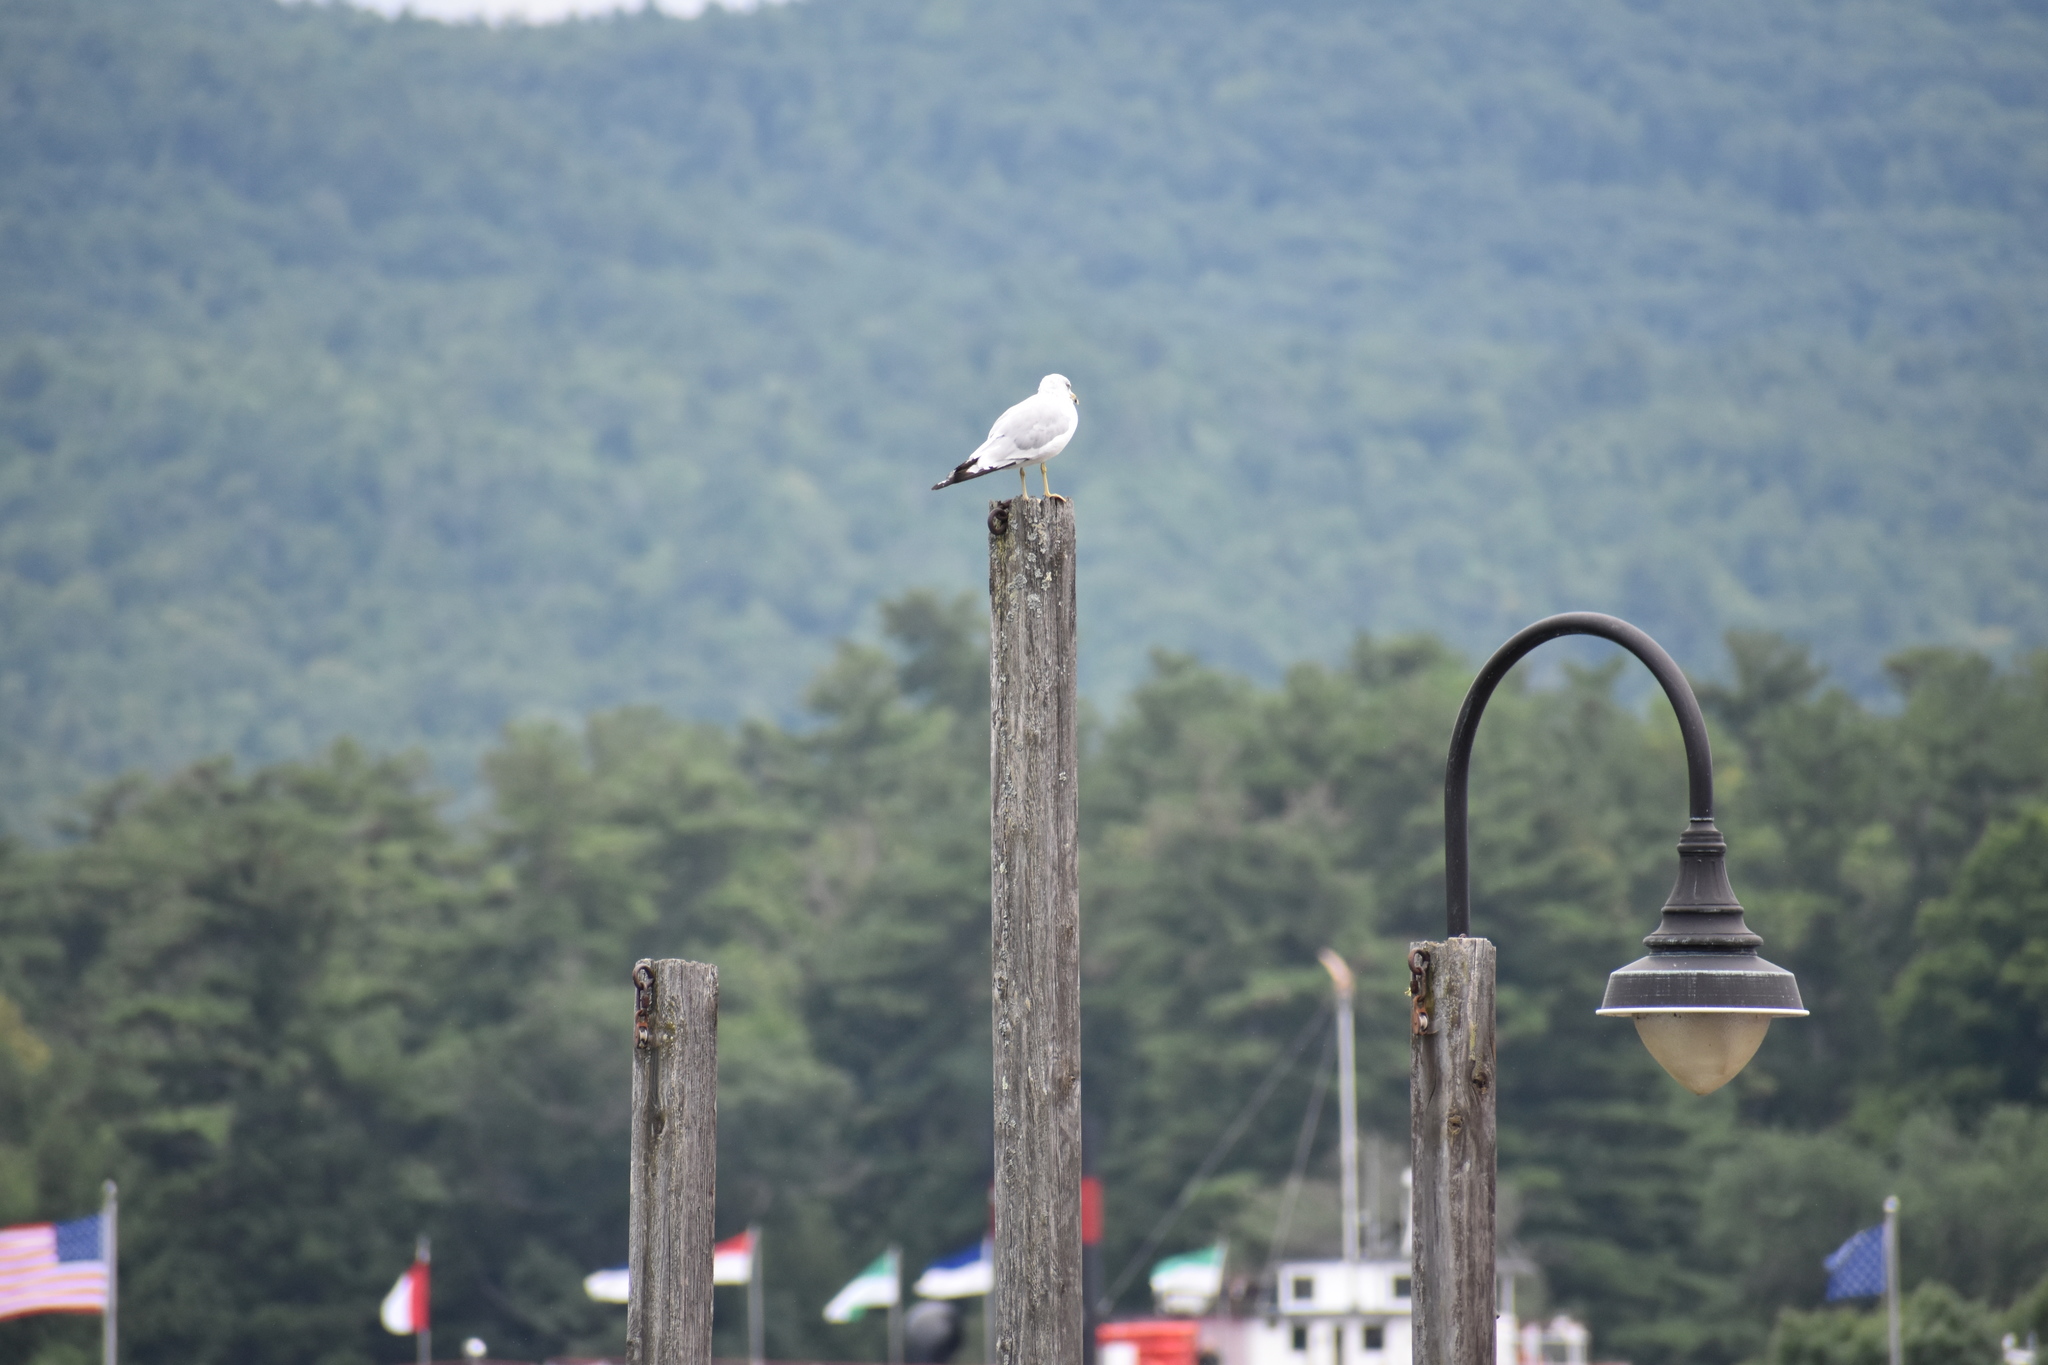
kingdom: Animalia
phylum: Chordata
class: Aves
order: Charadriiformes
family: Laridae
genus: Larus
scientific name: Larus delawarensis
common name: Ring-billed gull
